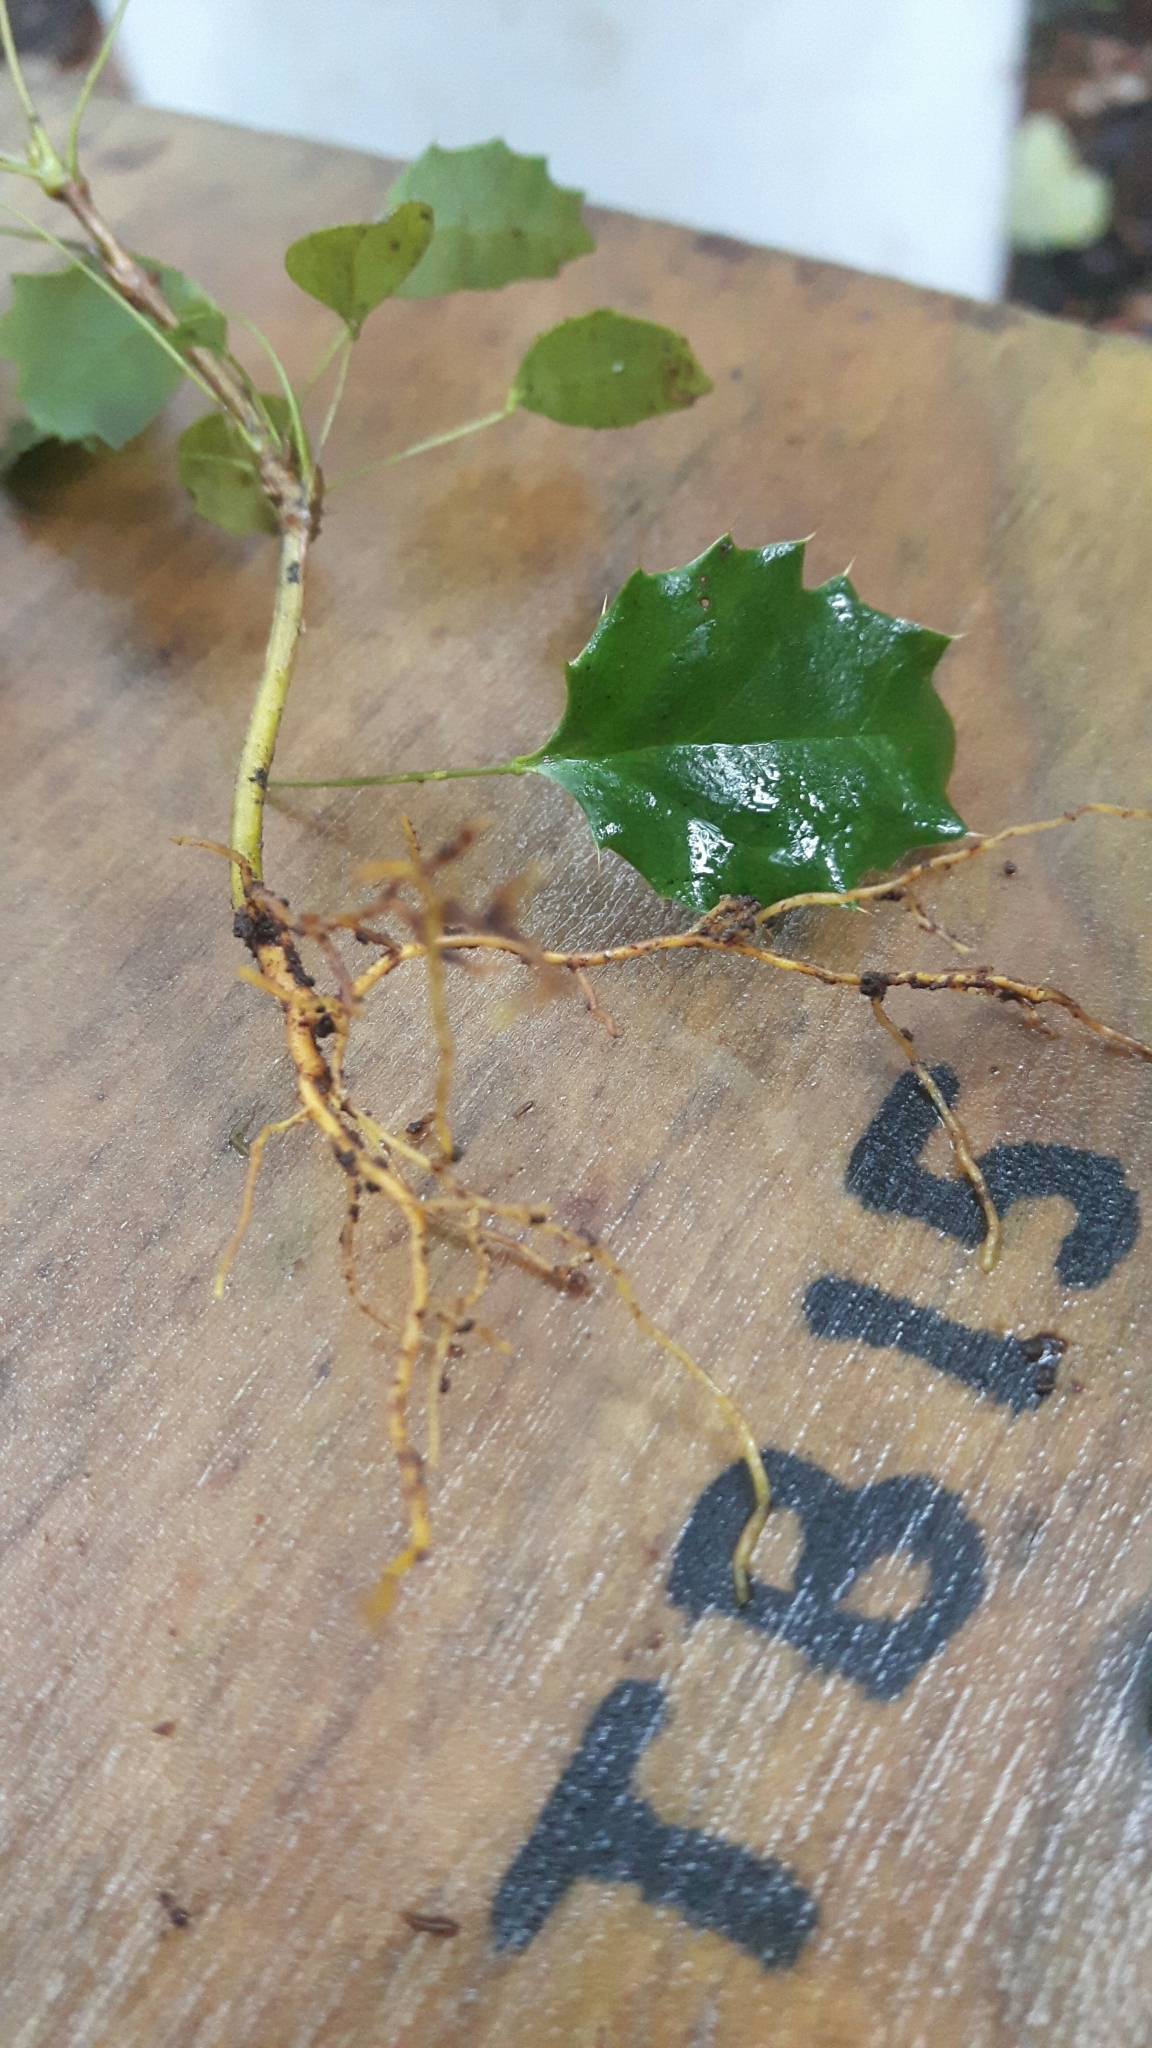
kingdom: Plantae
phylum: Tracheophyta
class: Magnoliopsida
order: Ranunculales
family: Berberidaceae
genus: Berberis
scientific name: Berberis darwinii
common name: Darwin's barberry
